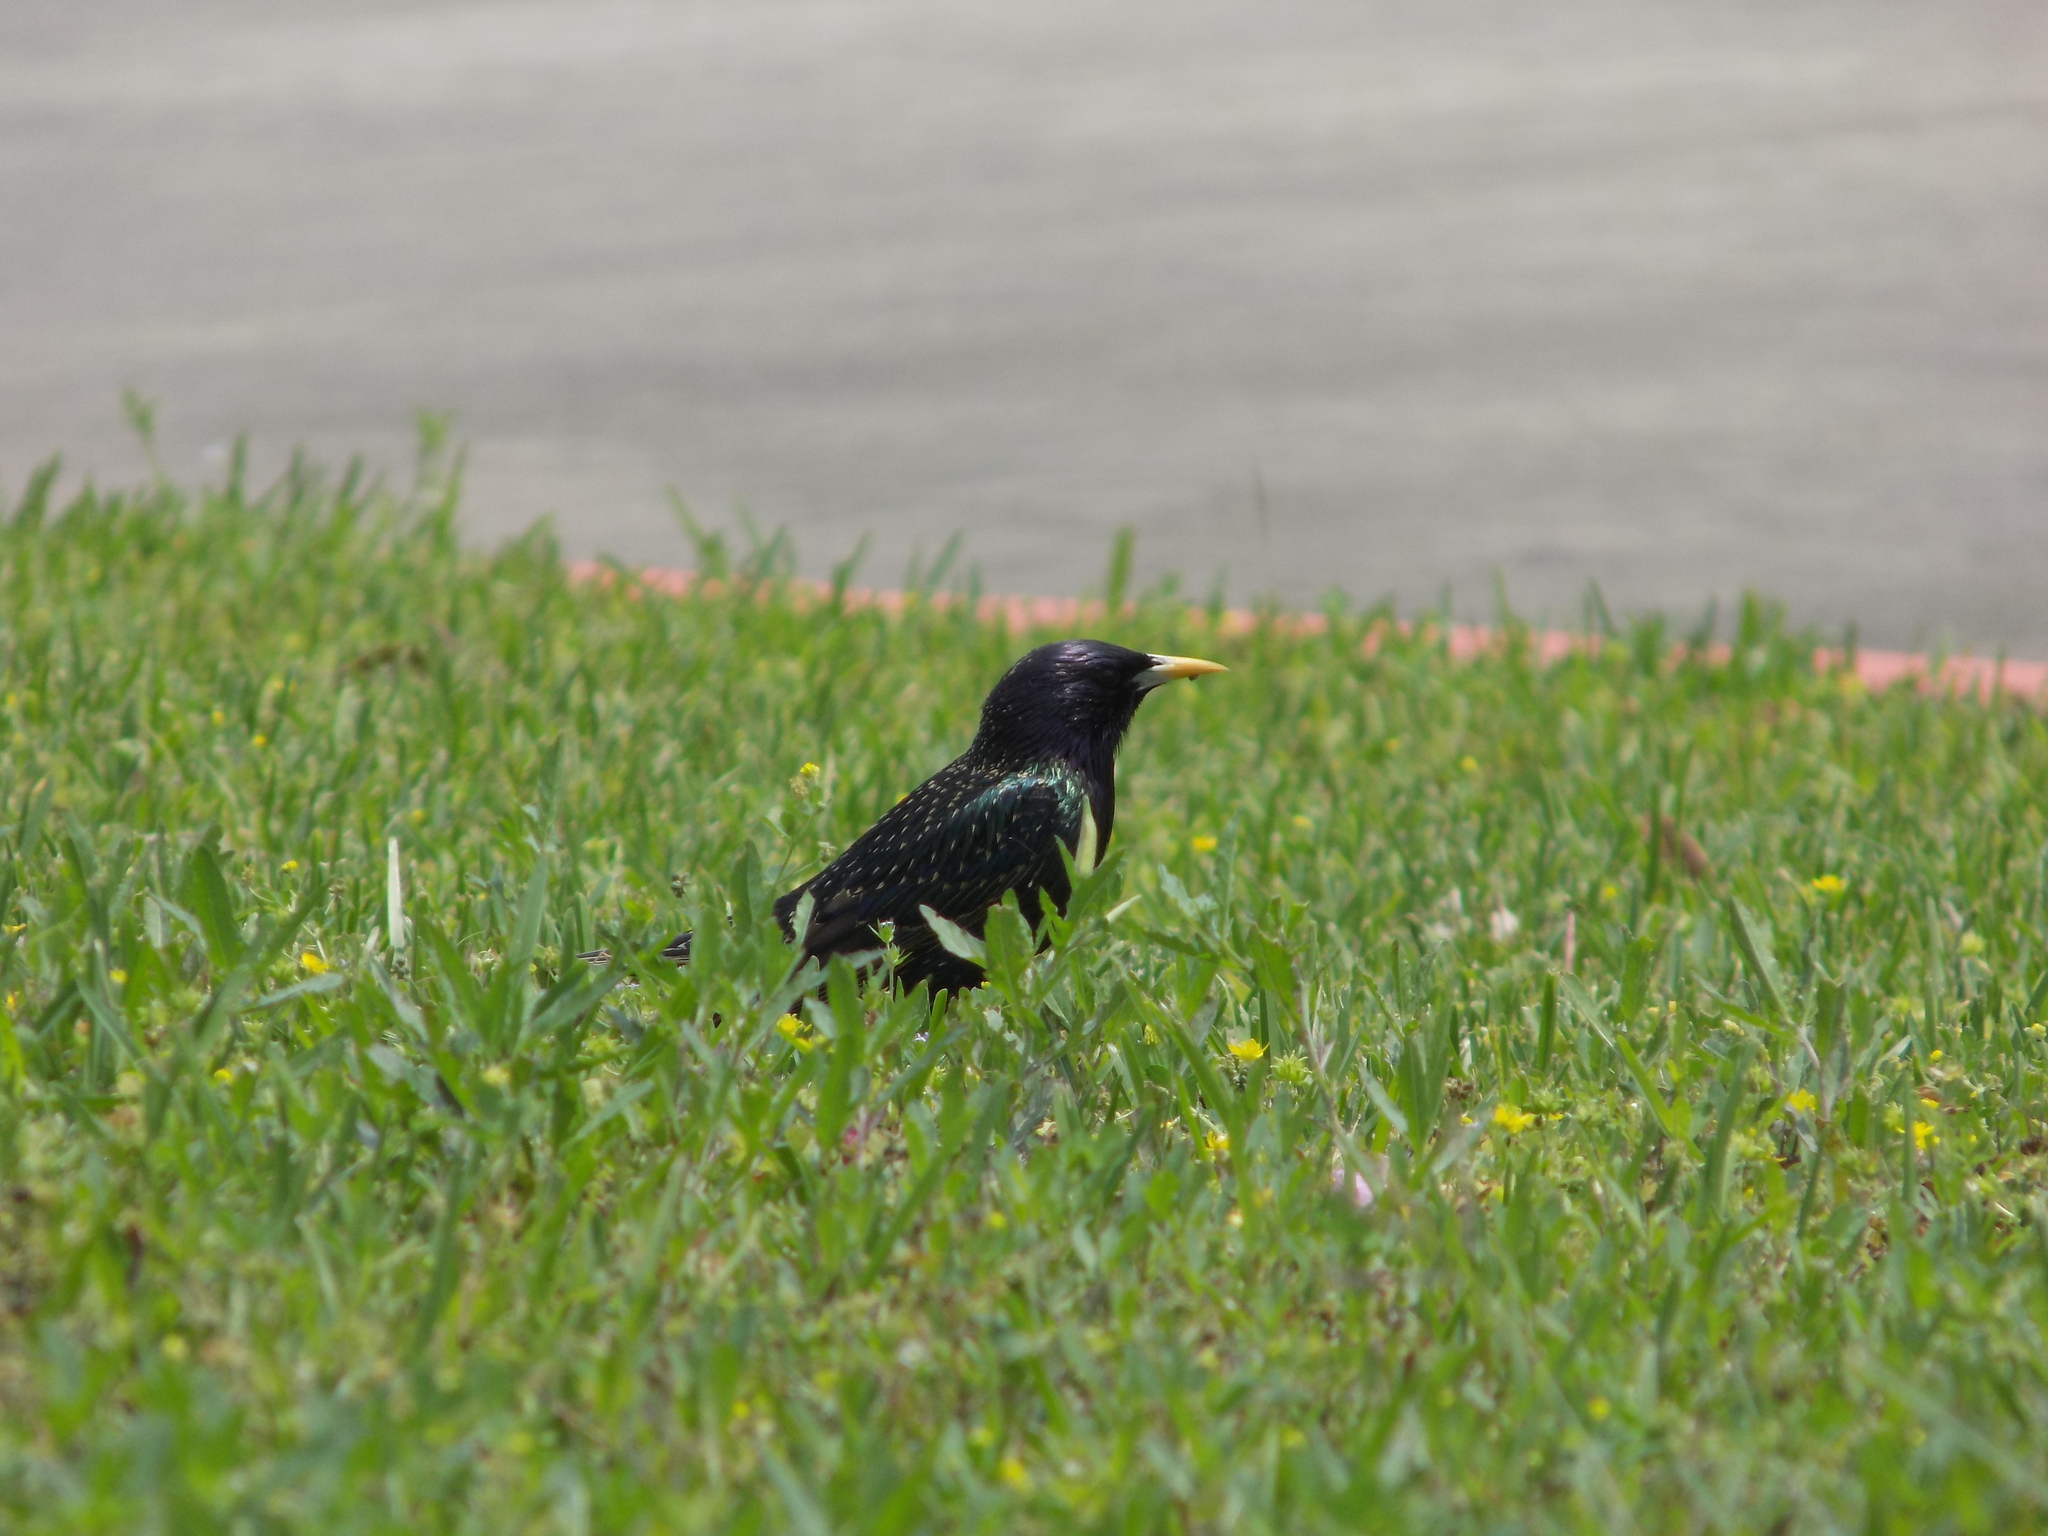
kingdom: Animalia
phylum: Chordata
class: Aves
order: Passeriformes
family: Sturnidae
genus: Sturnus
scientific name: Sturnus vulgaris
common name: Common starling
